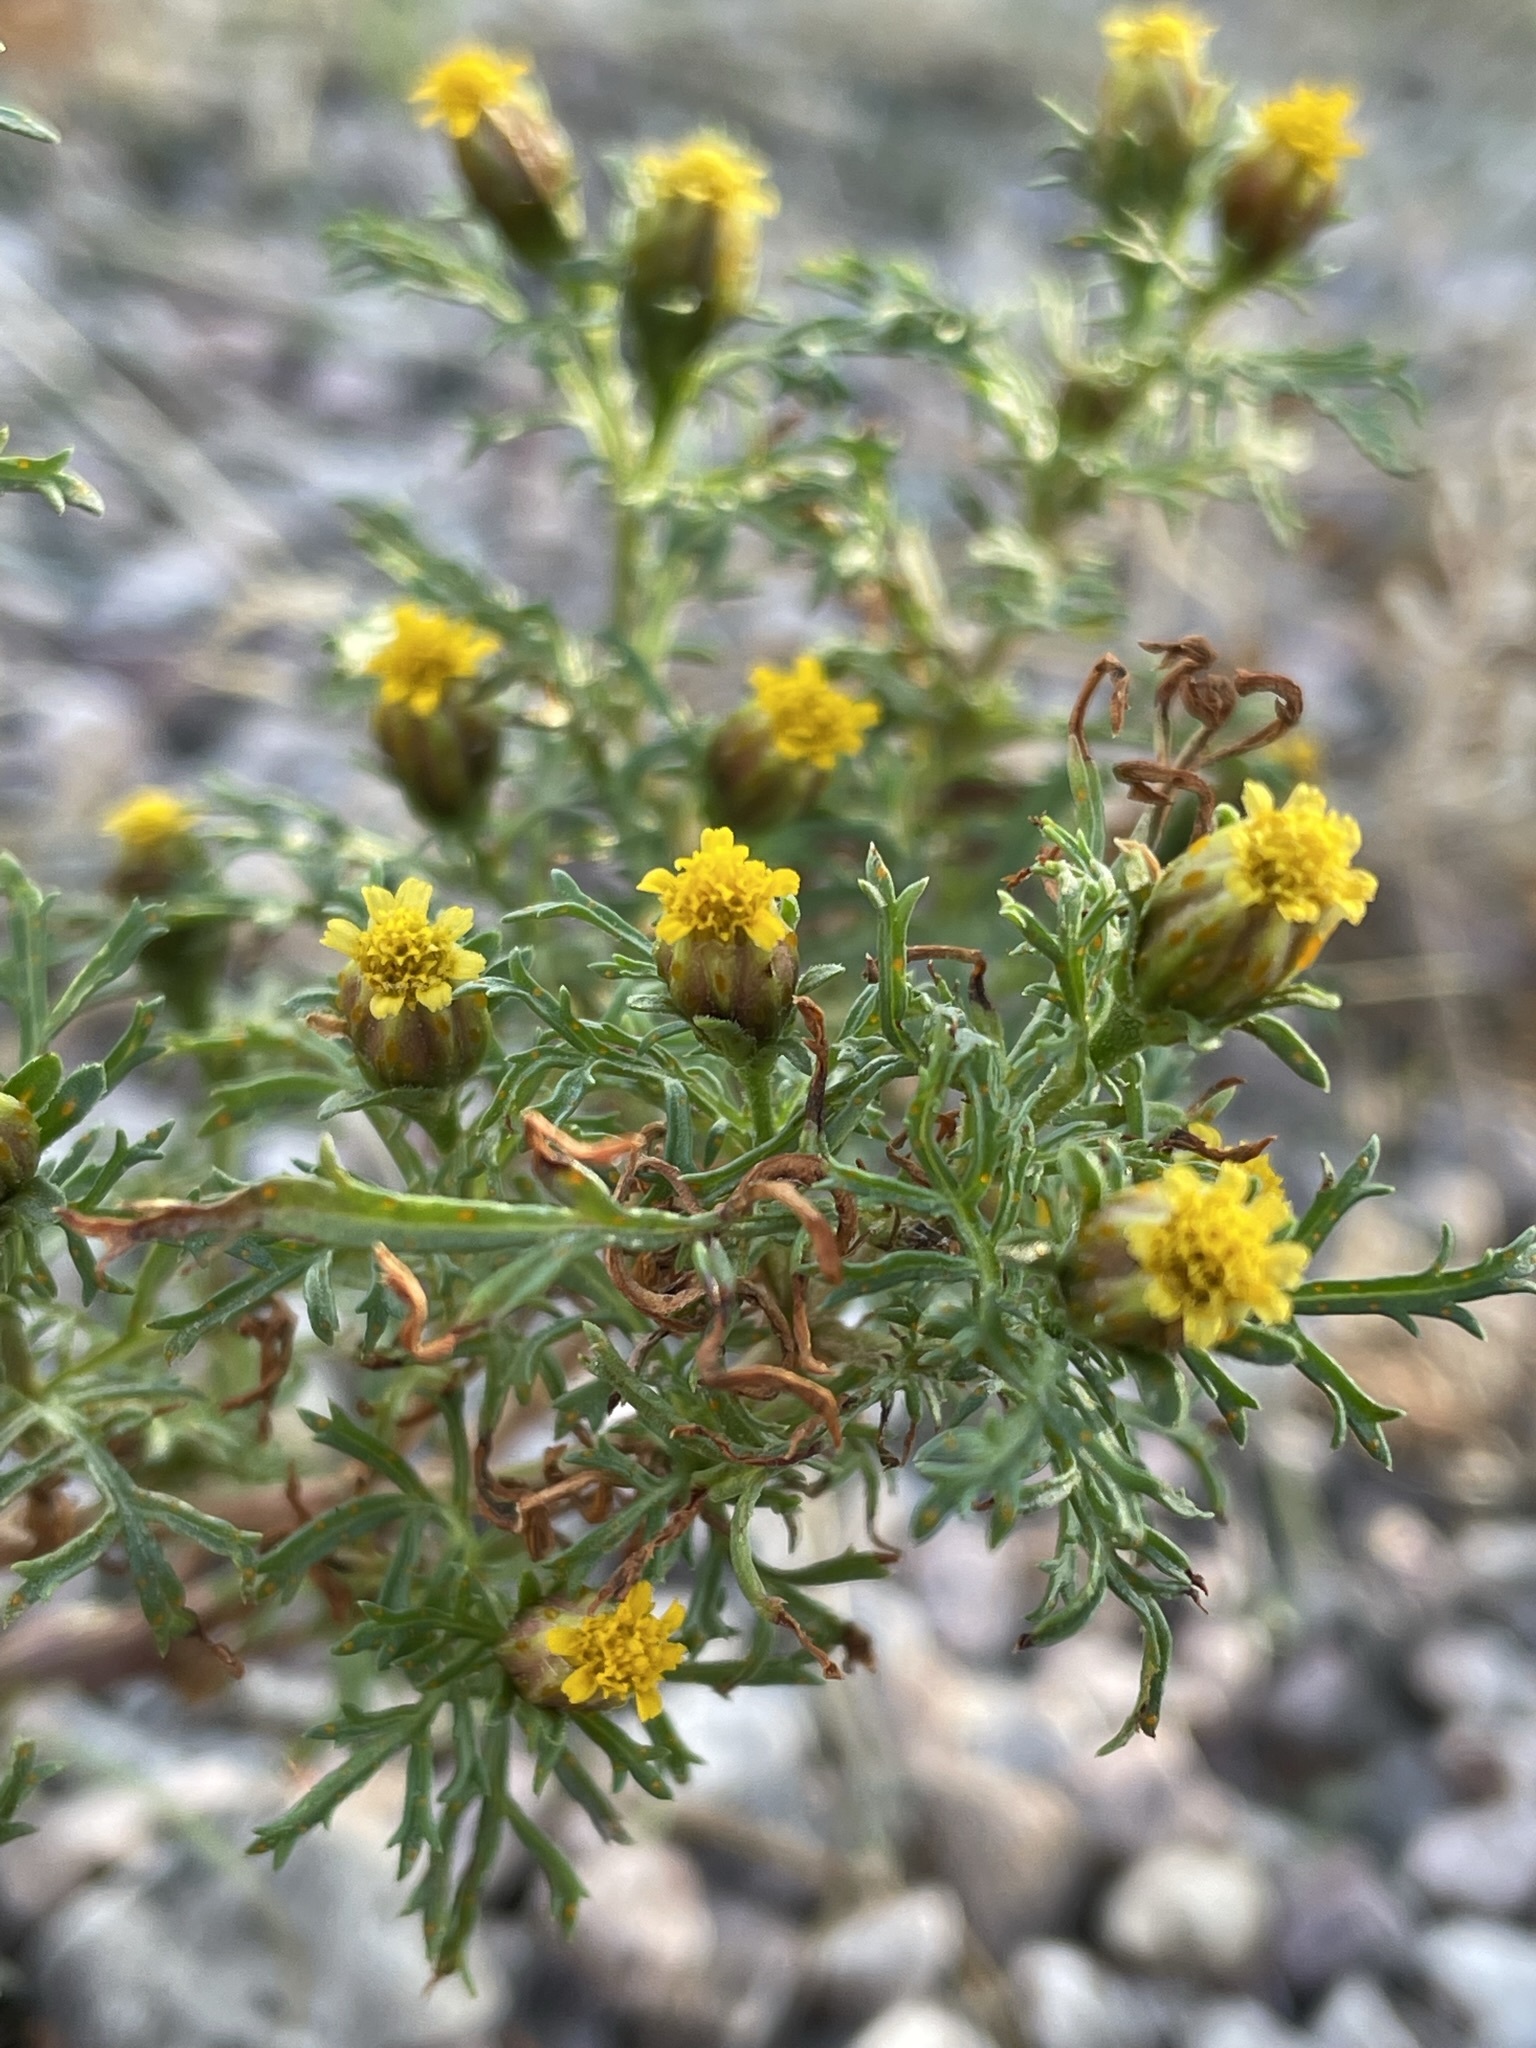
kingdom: Plantae
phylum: Tracheophyta
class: Magnoliopsida
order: Asterales
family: Asteraceae
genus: Dyssodia
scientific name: Dyssodia papposa
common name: Dogweed
